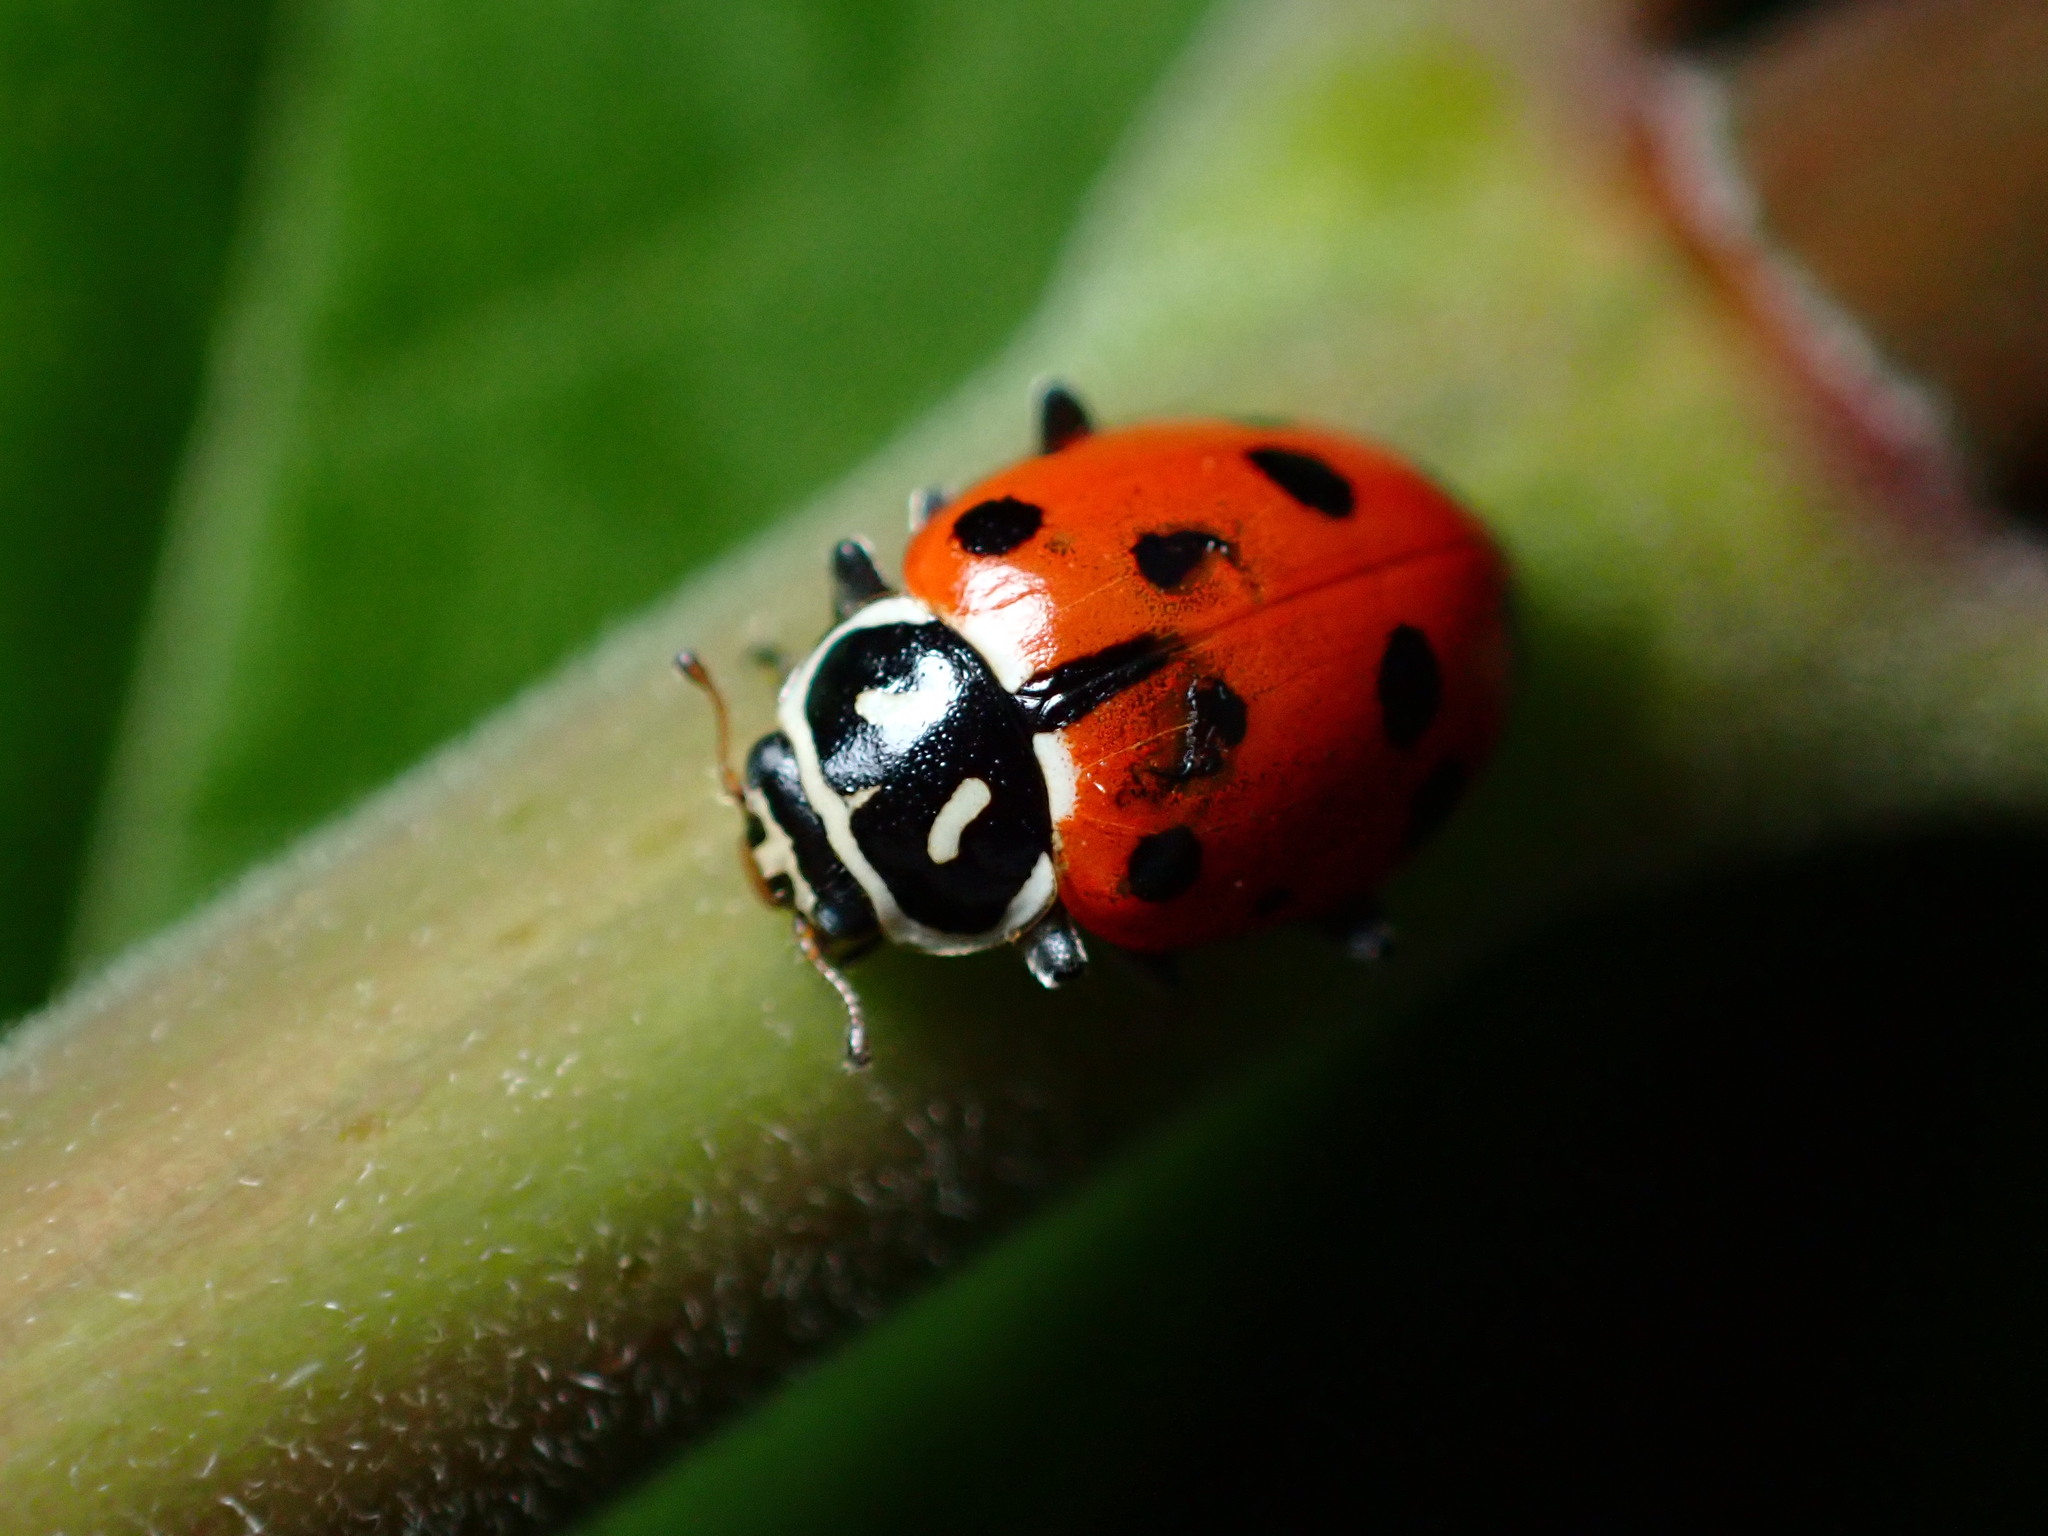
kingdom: Animalia
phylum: Arthropoda
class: Insecta
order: Coleoptera
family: Coccinellidae
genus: Hippodamia
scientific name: Hippodamia convergens
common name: Convergent lady beetle
